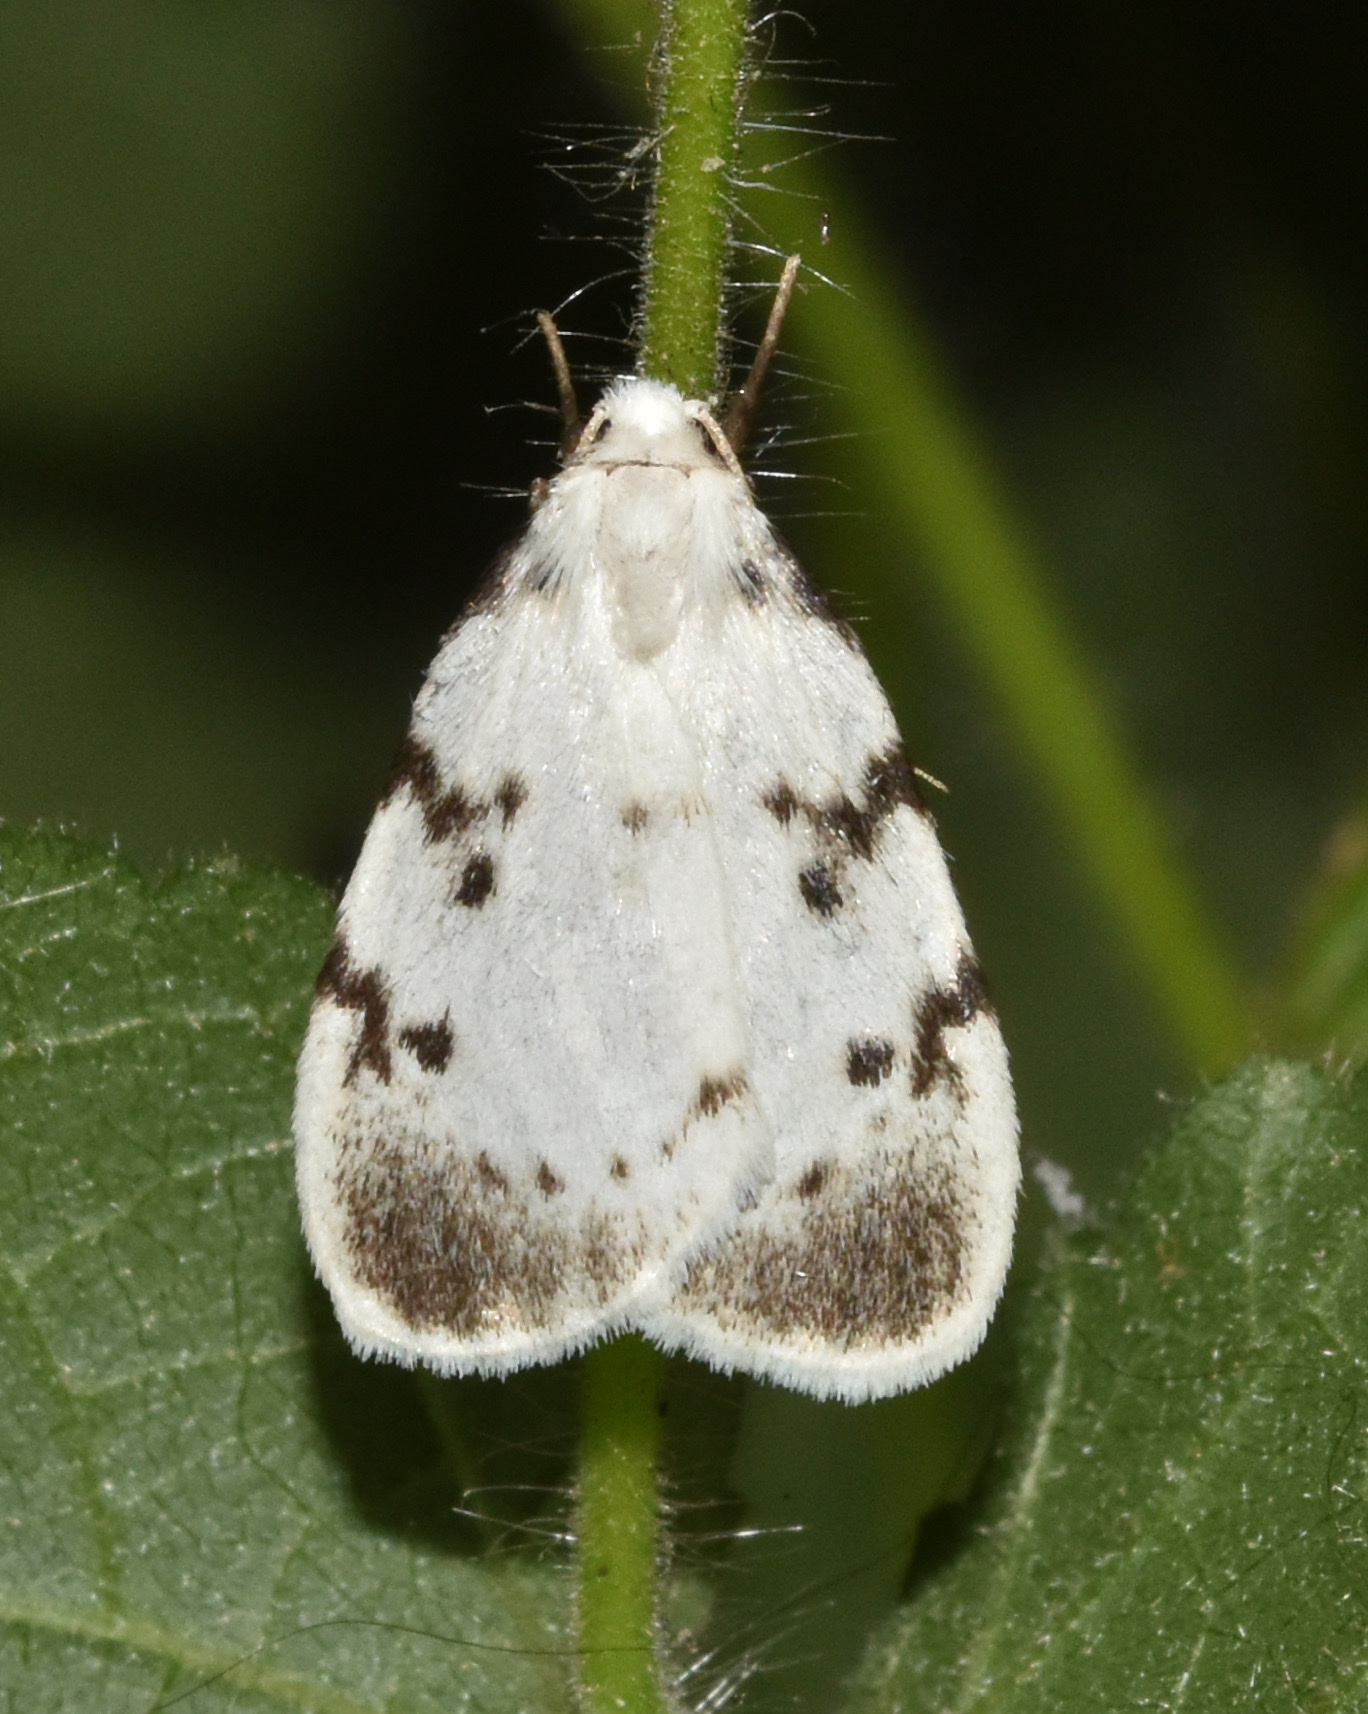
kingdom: Animalia
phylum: Arthropoda
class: Insecta
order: Lepidoptera
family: Erebidae
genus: Cyana
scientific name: Cyana marshalli
